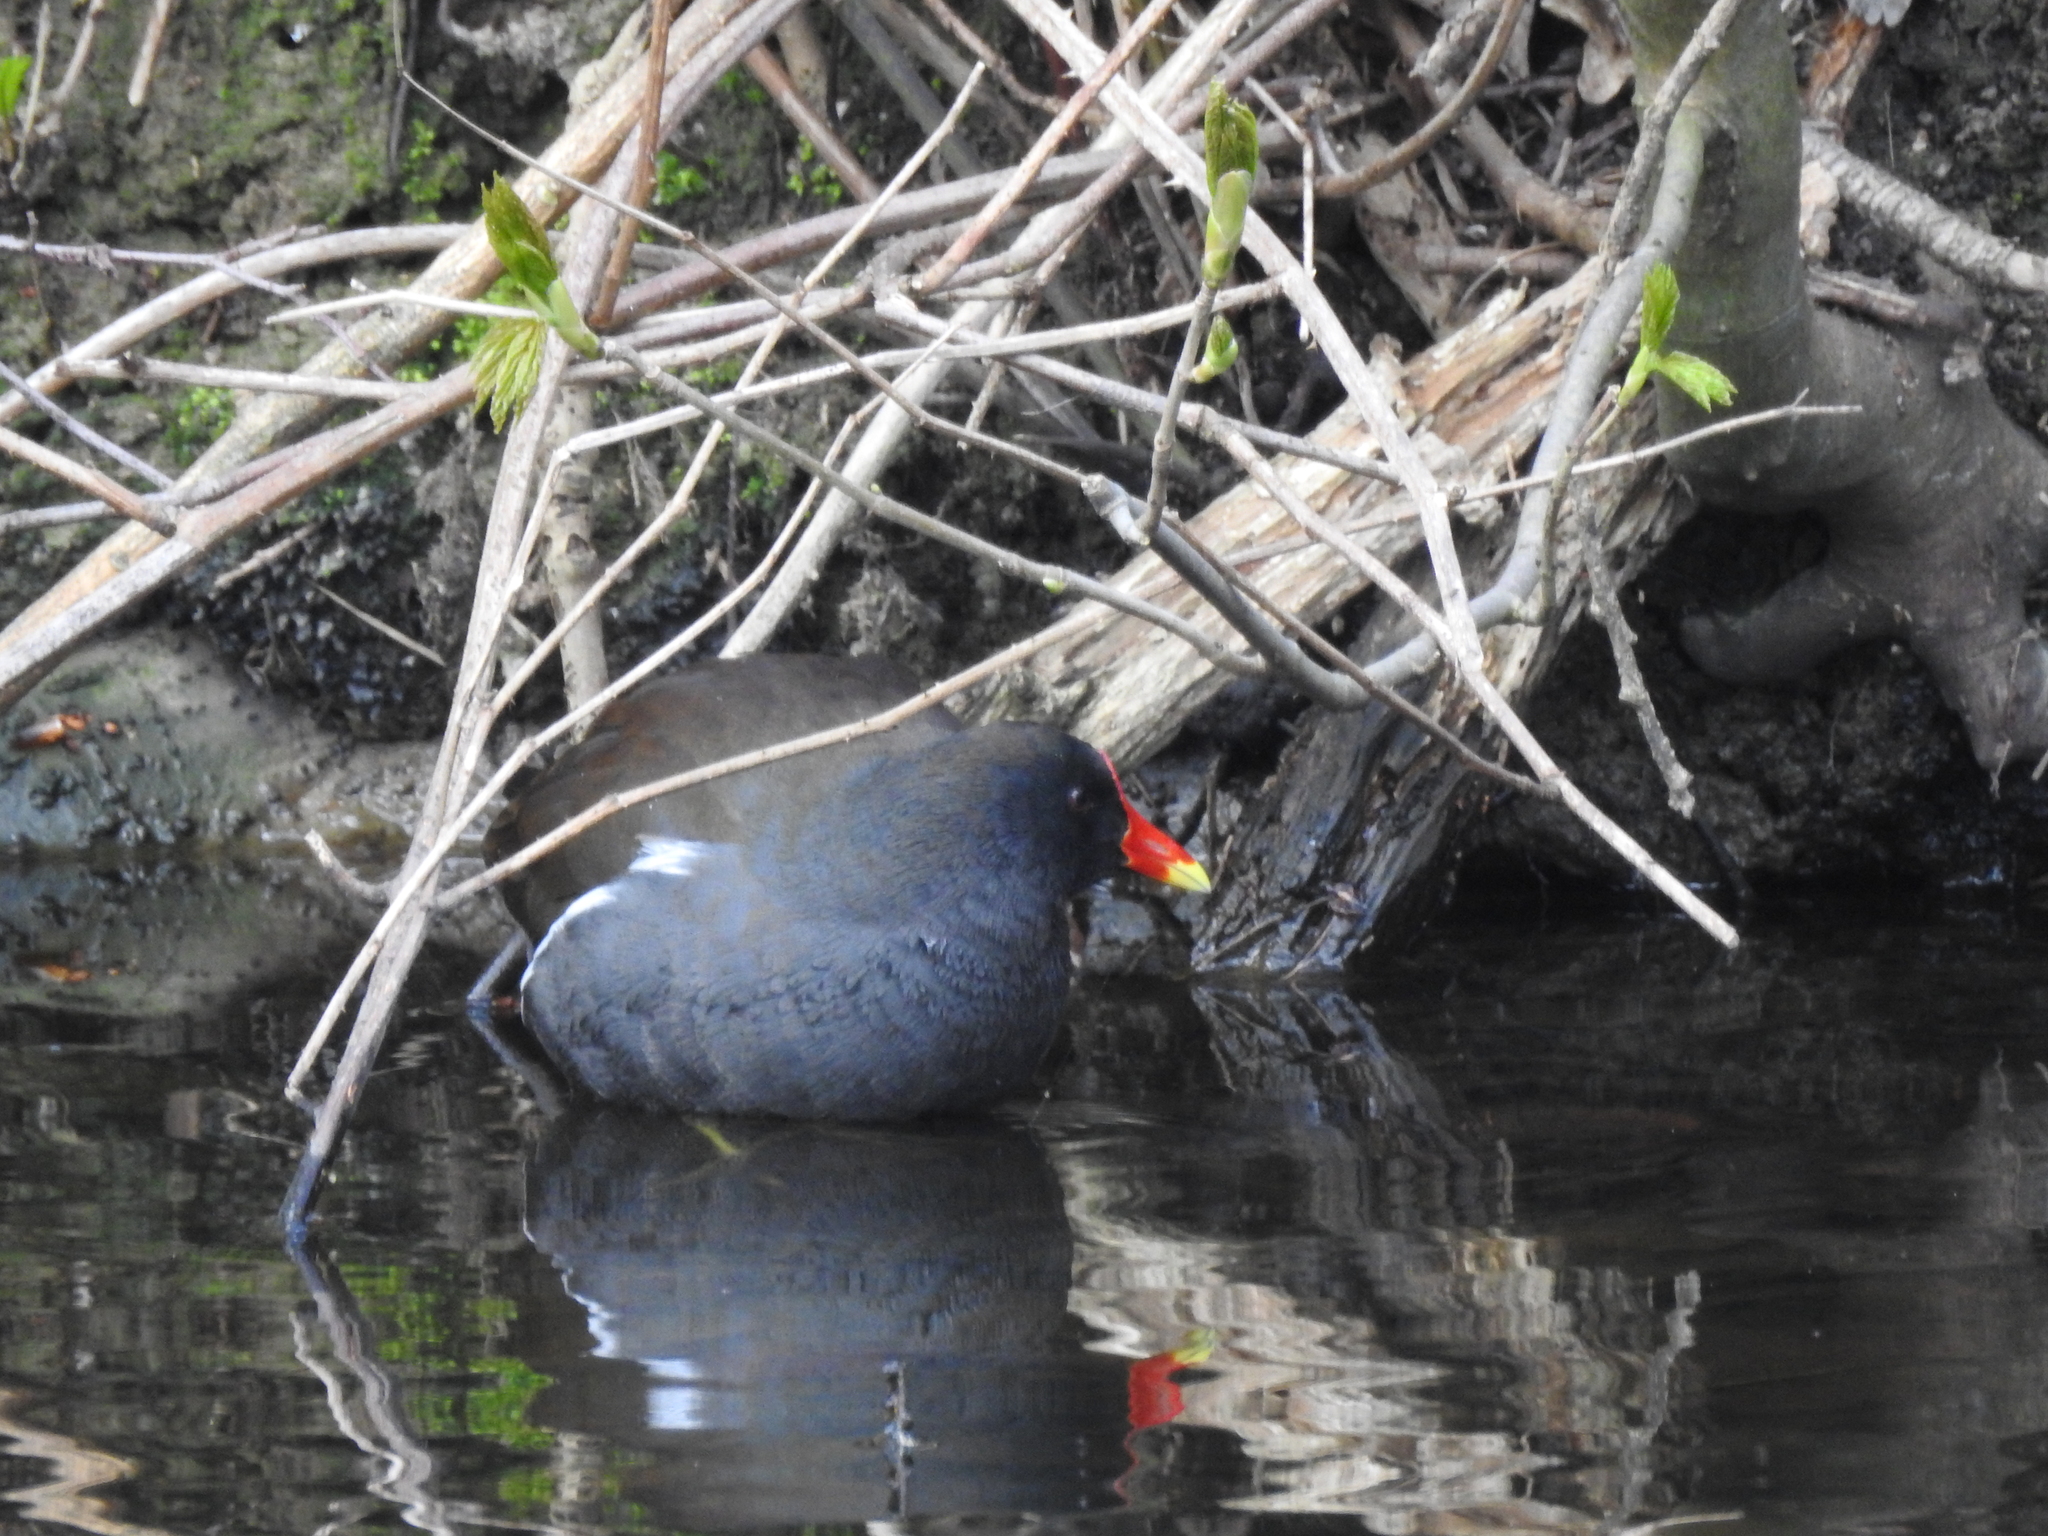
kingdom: Animalia
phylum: Chordata
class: Aves
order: Gruiformes
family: Rallidae
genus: Gallinula
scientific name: Gallinula chloropus
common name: Common moorhen
